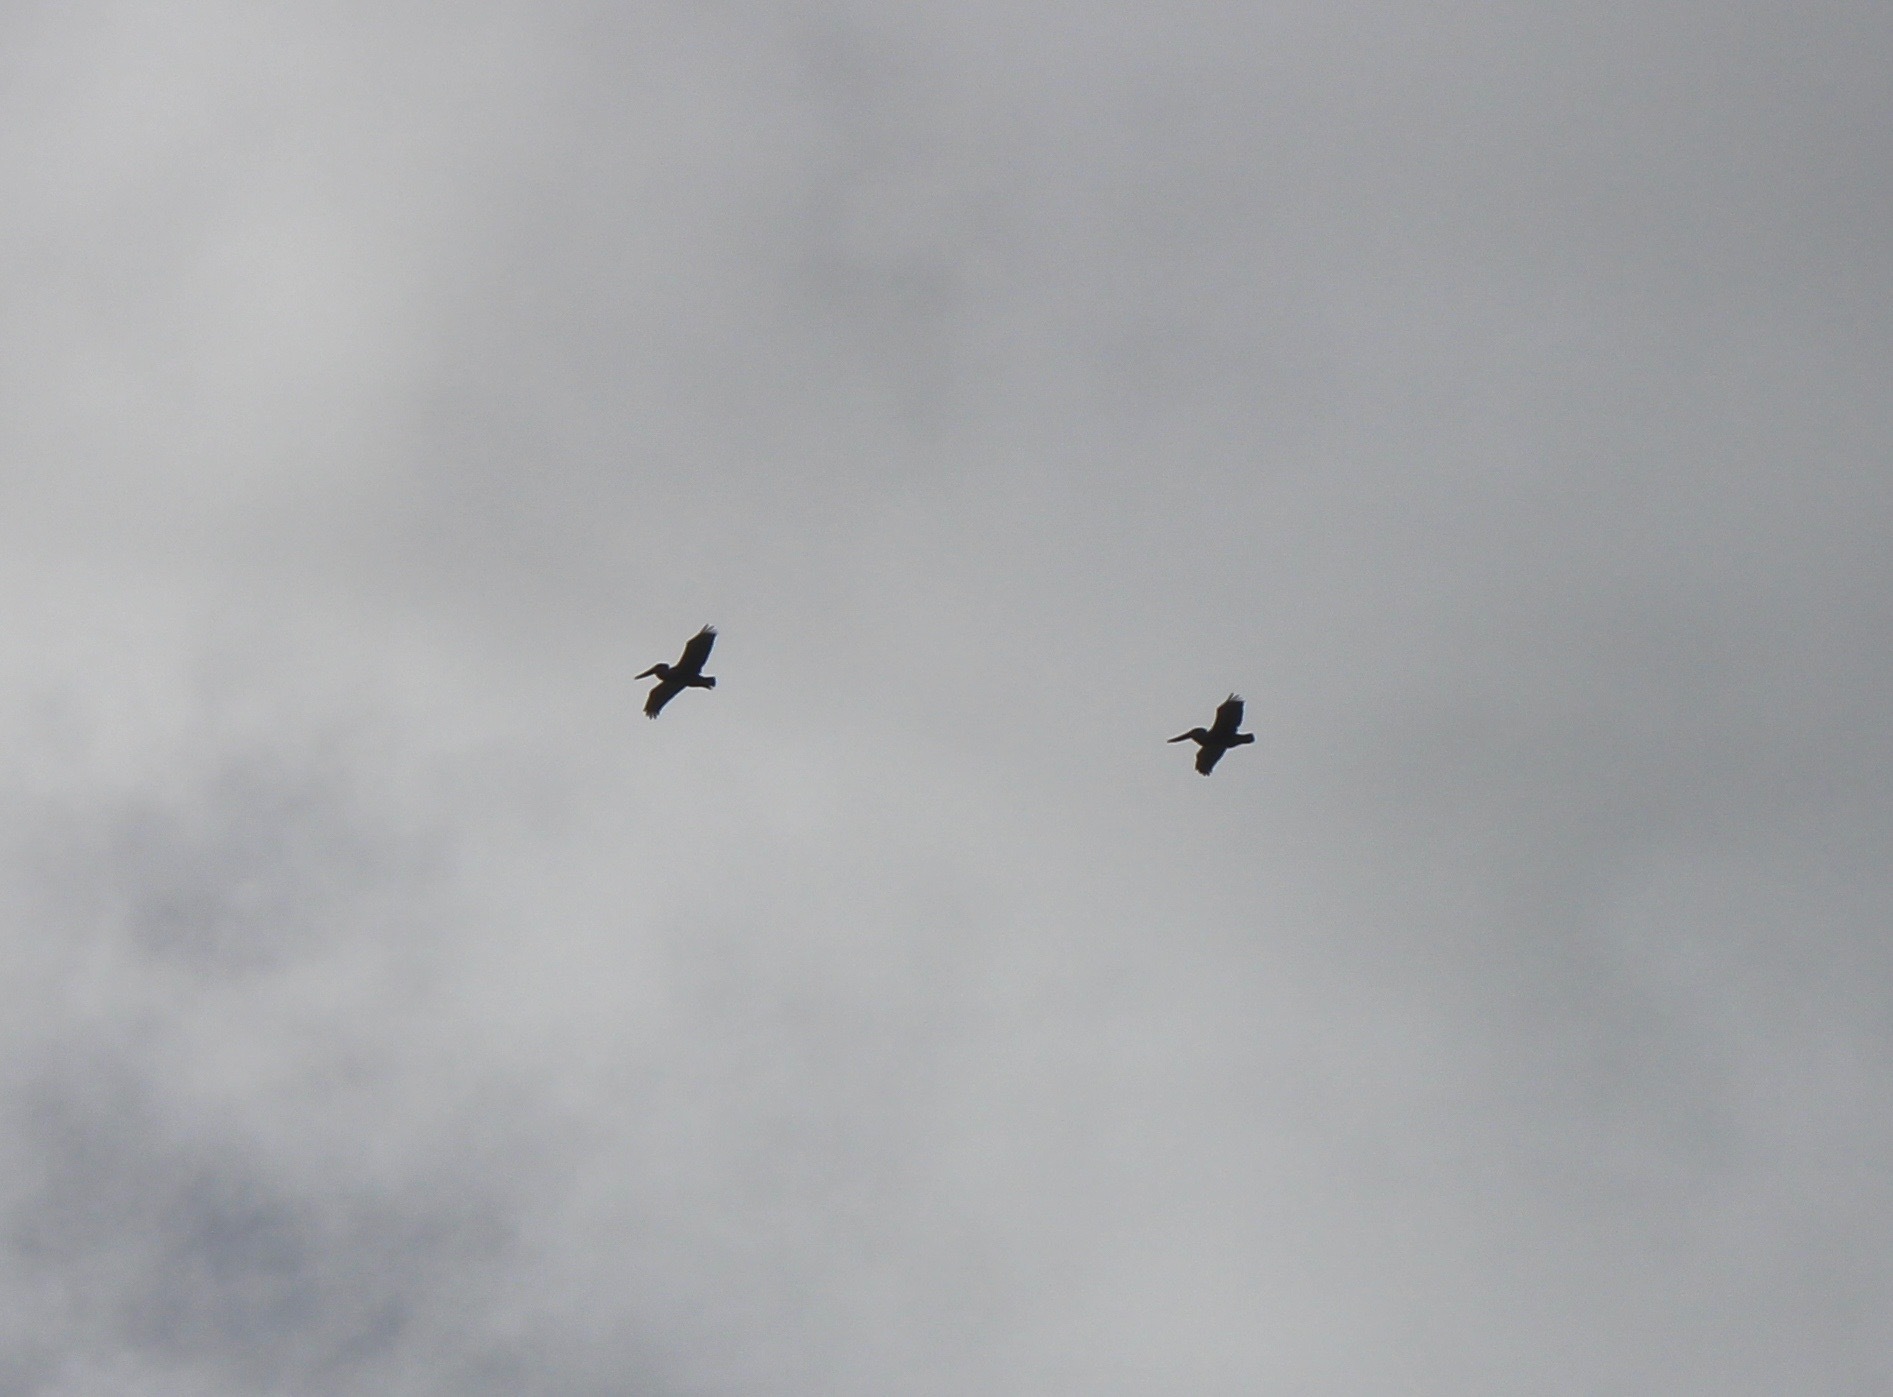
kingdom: Animalia
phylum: Chordata
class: Aves
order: Pelecaniformes
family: Pelecanidae
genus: Pelecanus
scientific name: Pelecanus occidentalis
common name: Brown pelican
